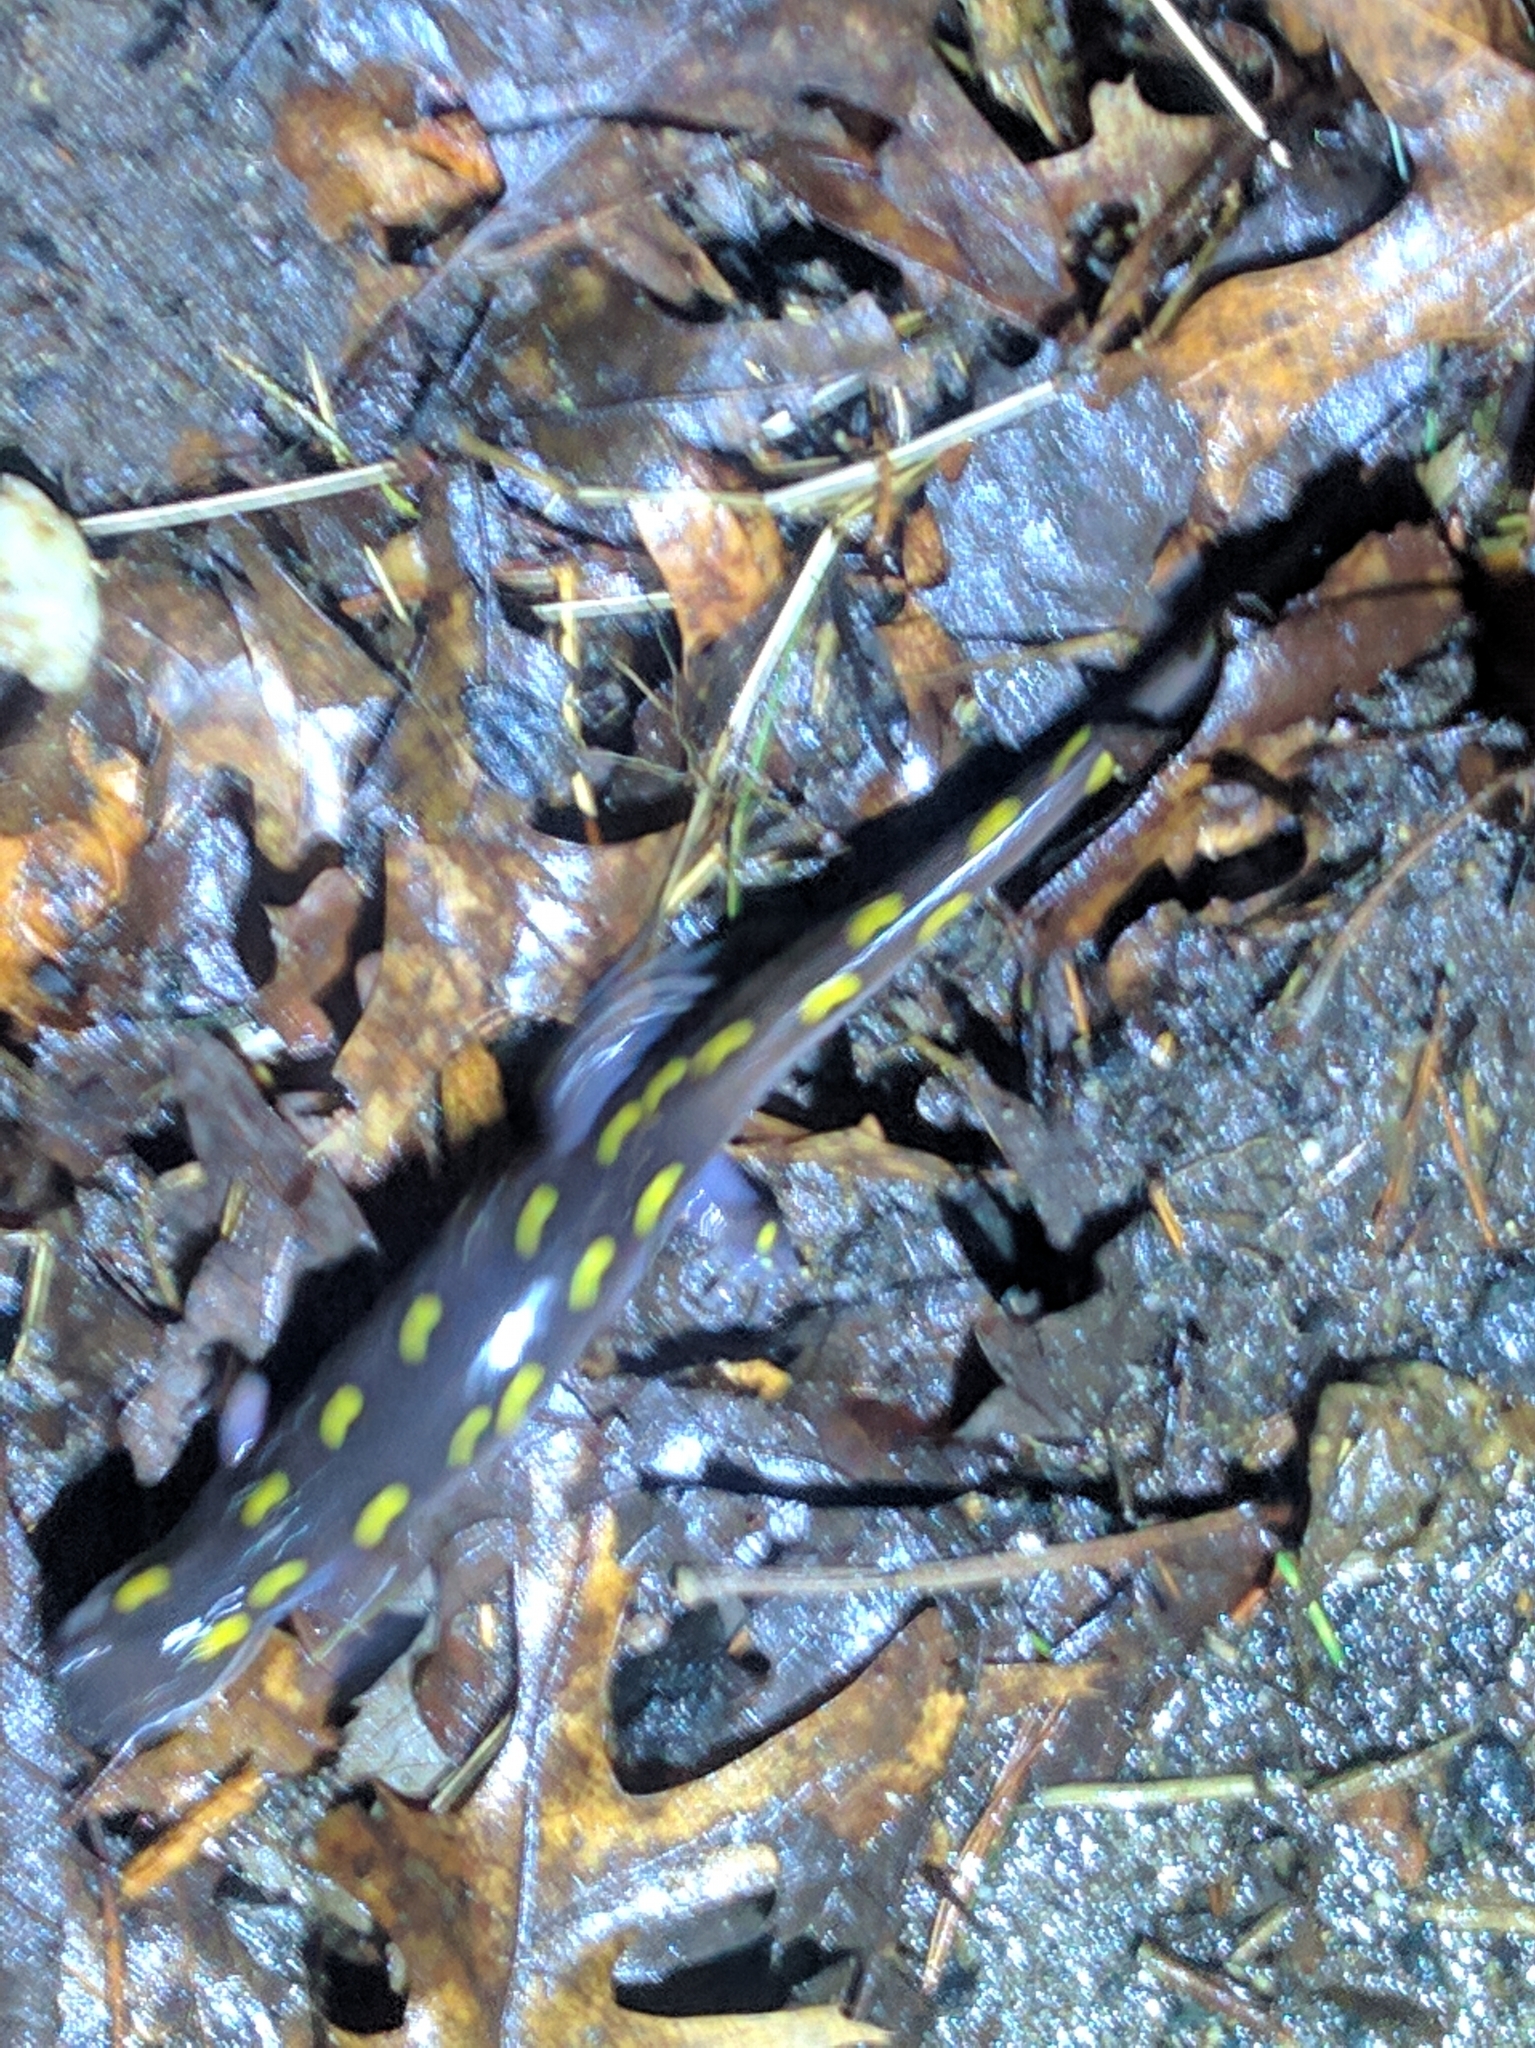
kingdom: Animalia
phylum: Chordata
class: Amphibia
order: Caudata
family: Ambystomatidae
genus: Ambystoma
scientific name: Ambystoma maculatum
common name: Spotted salamander
